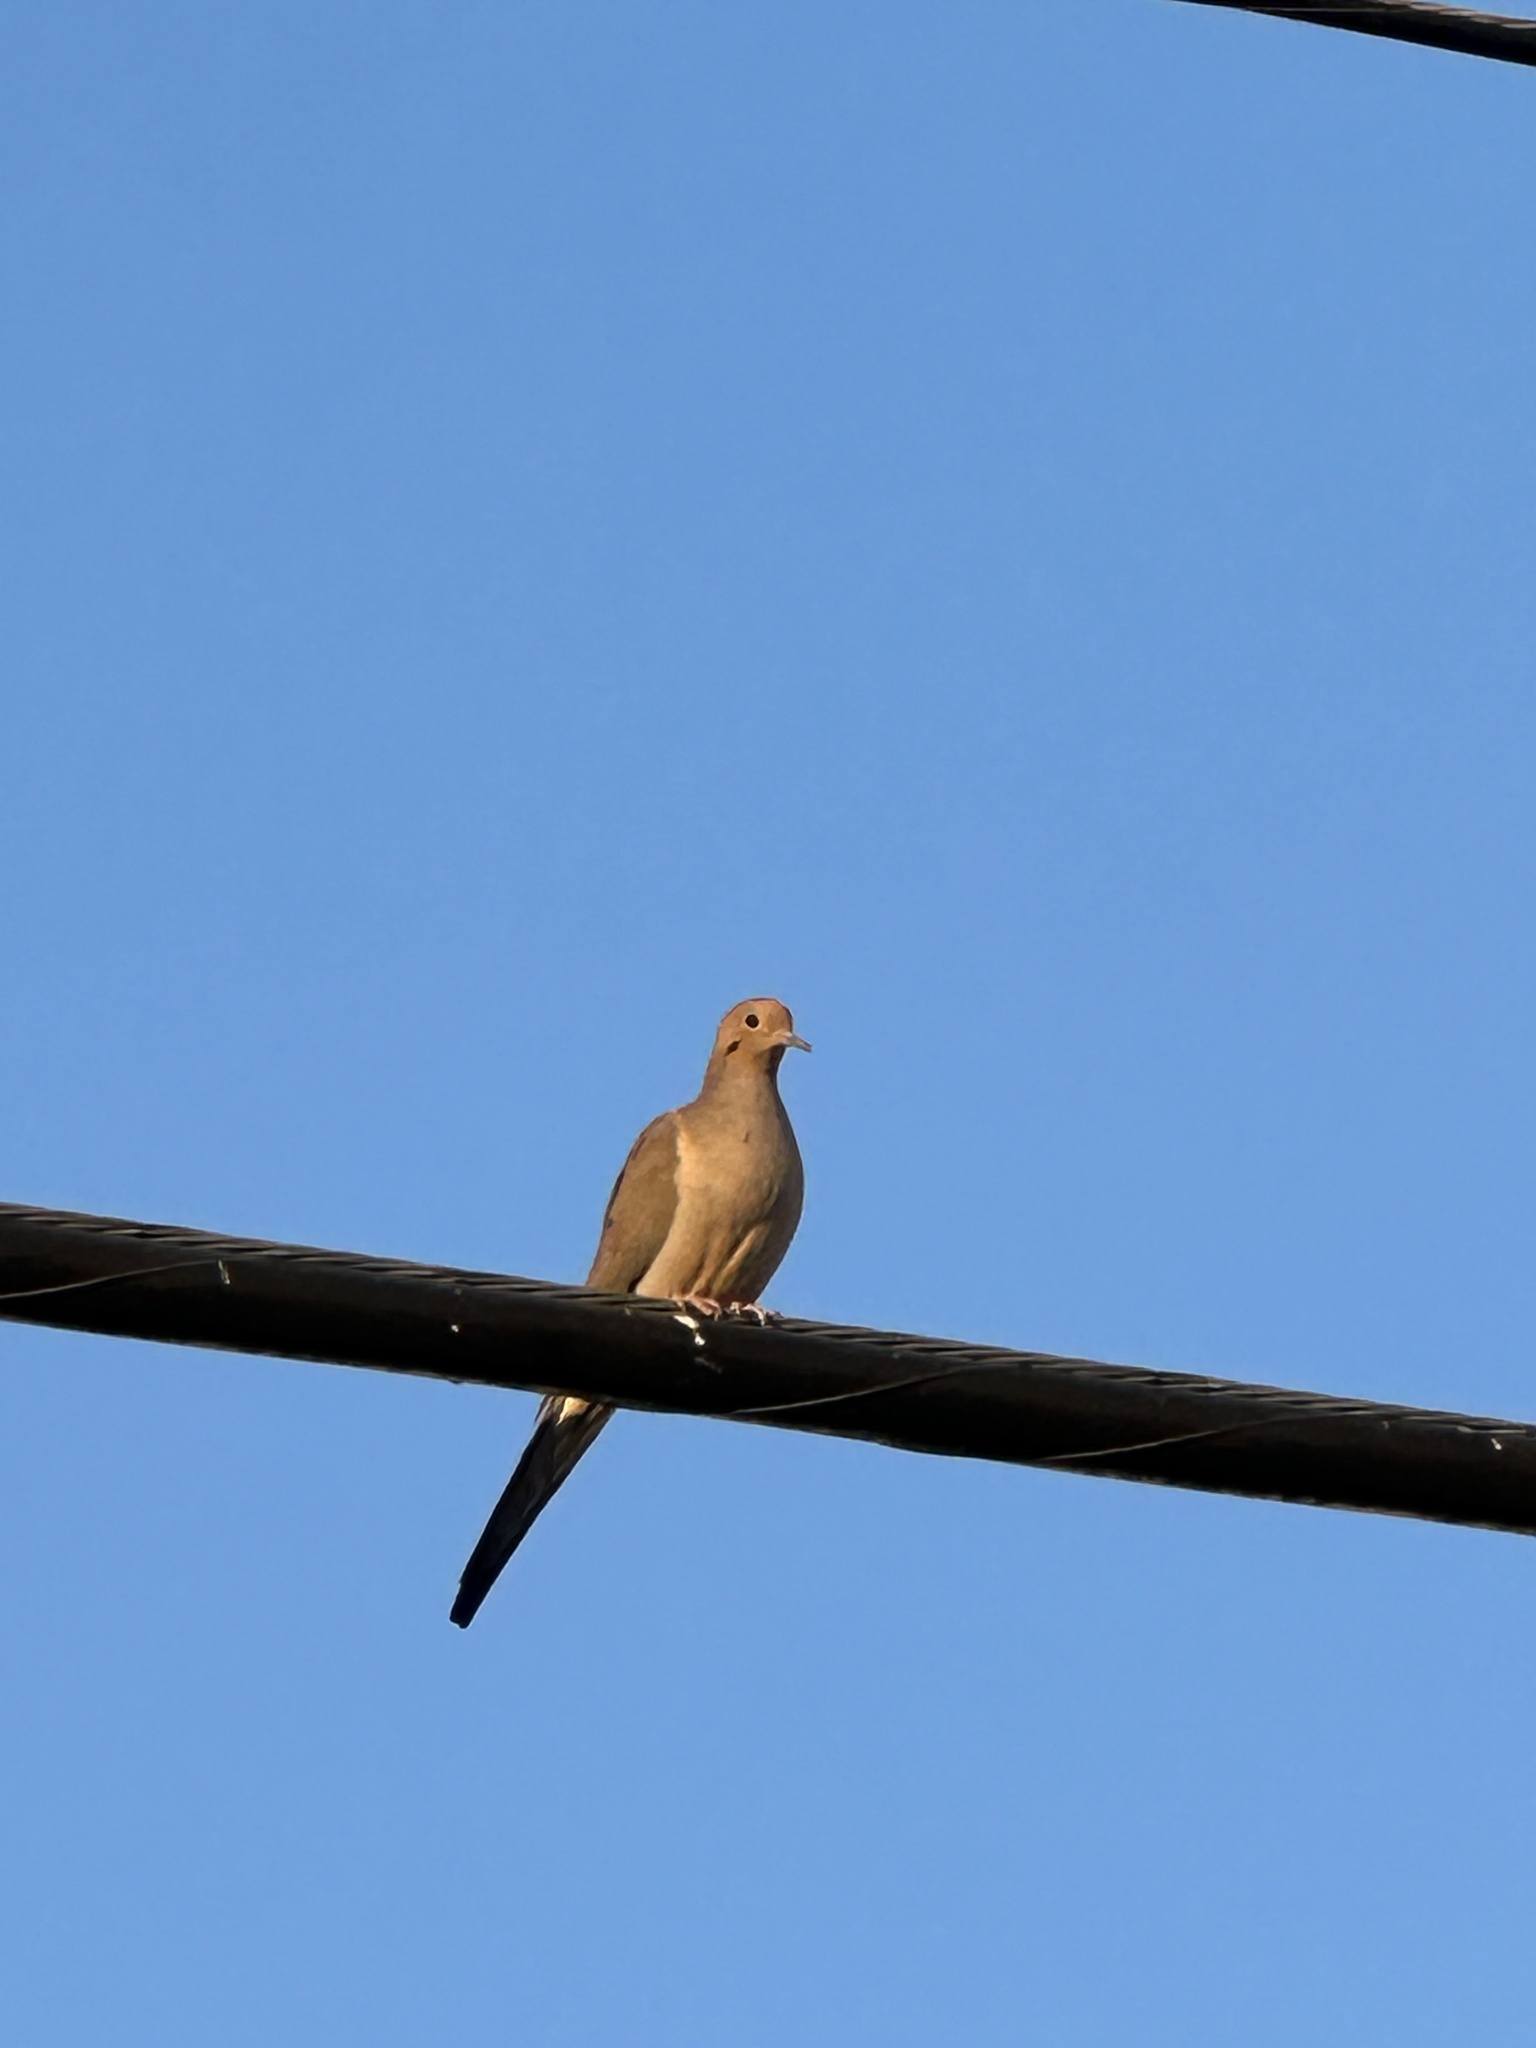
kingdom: Animalia
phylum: Chordata
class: Aves
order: Columbiformes
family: Columbidae
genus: Zenaida
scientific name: Zenaida macroura
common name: Mourning dove
